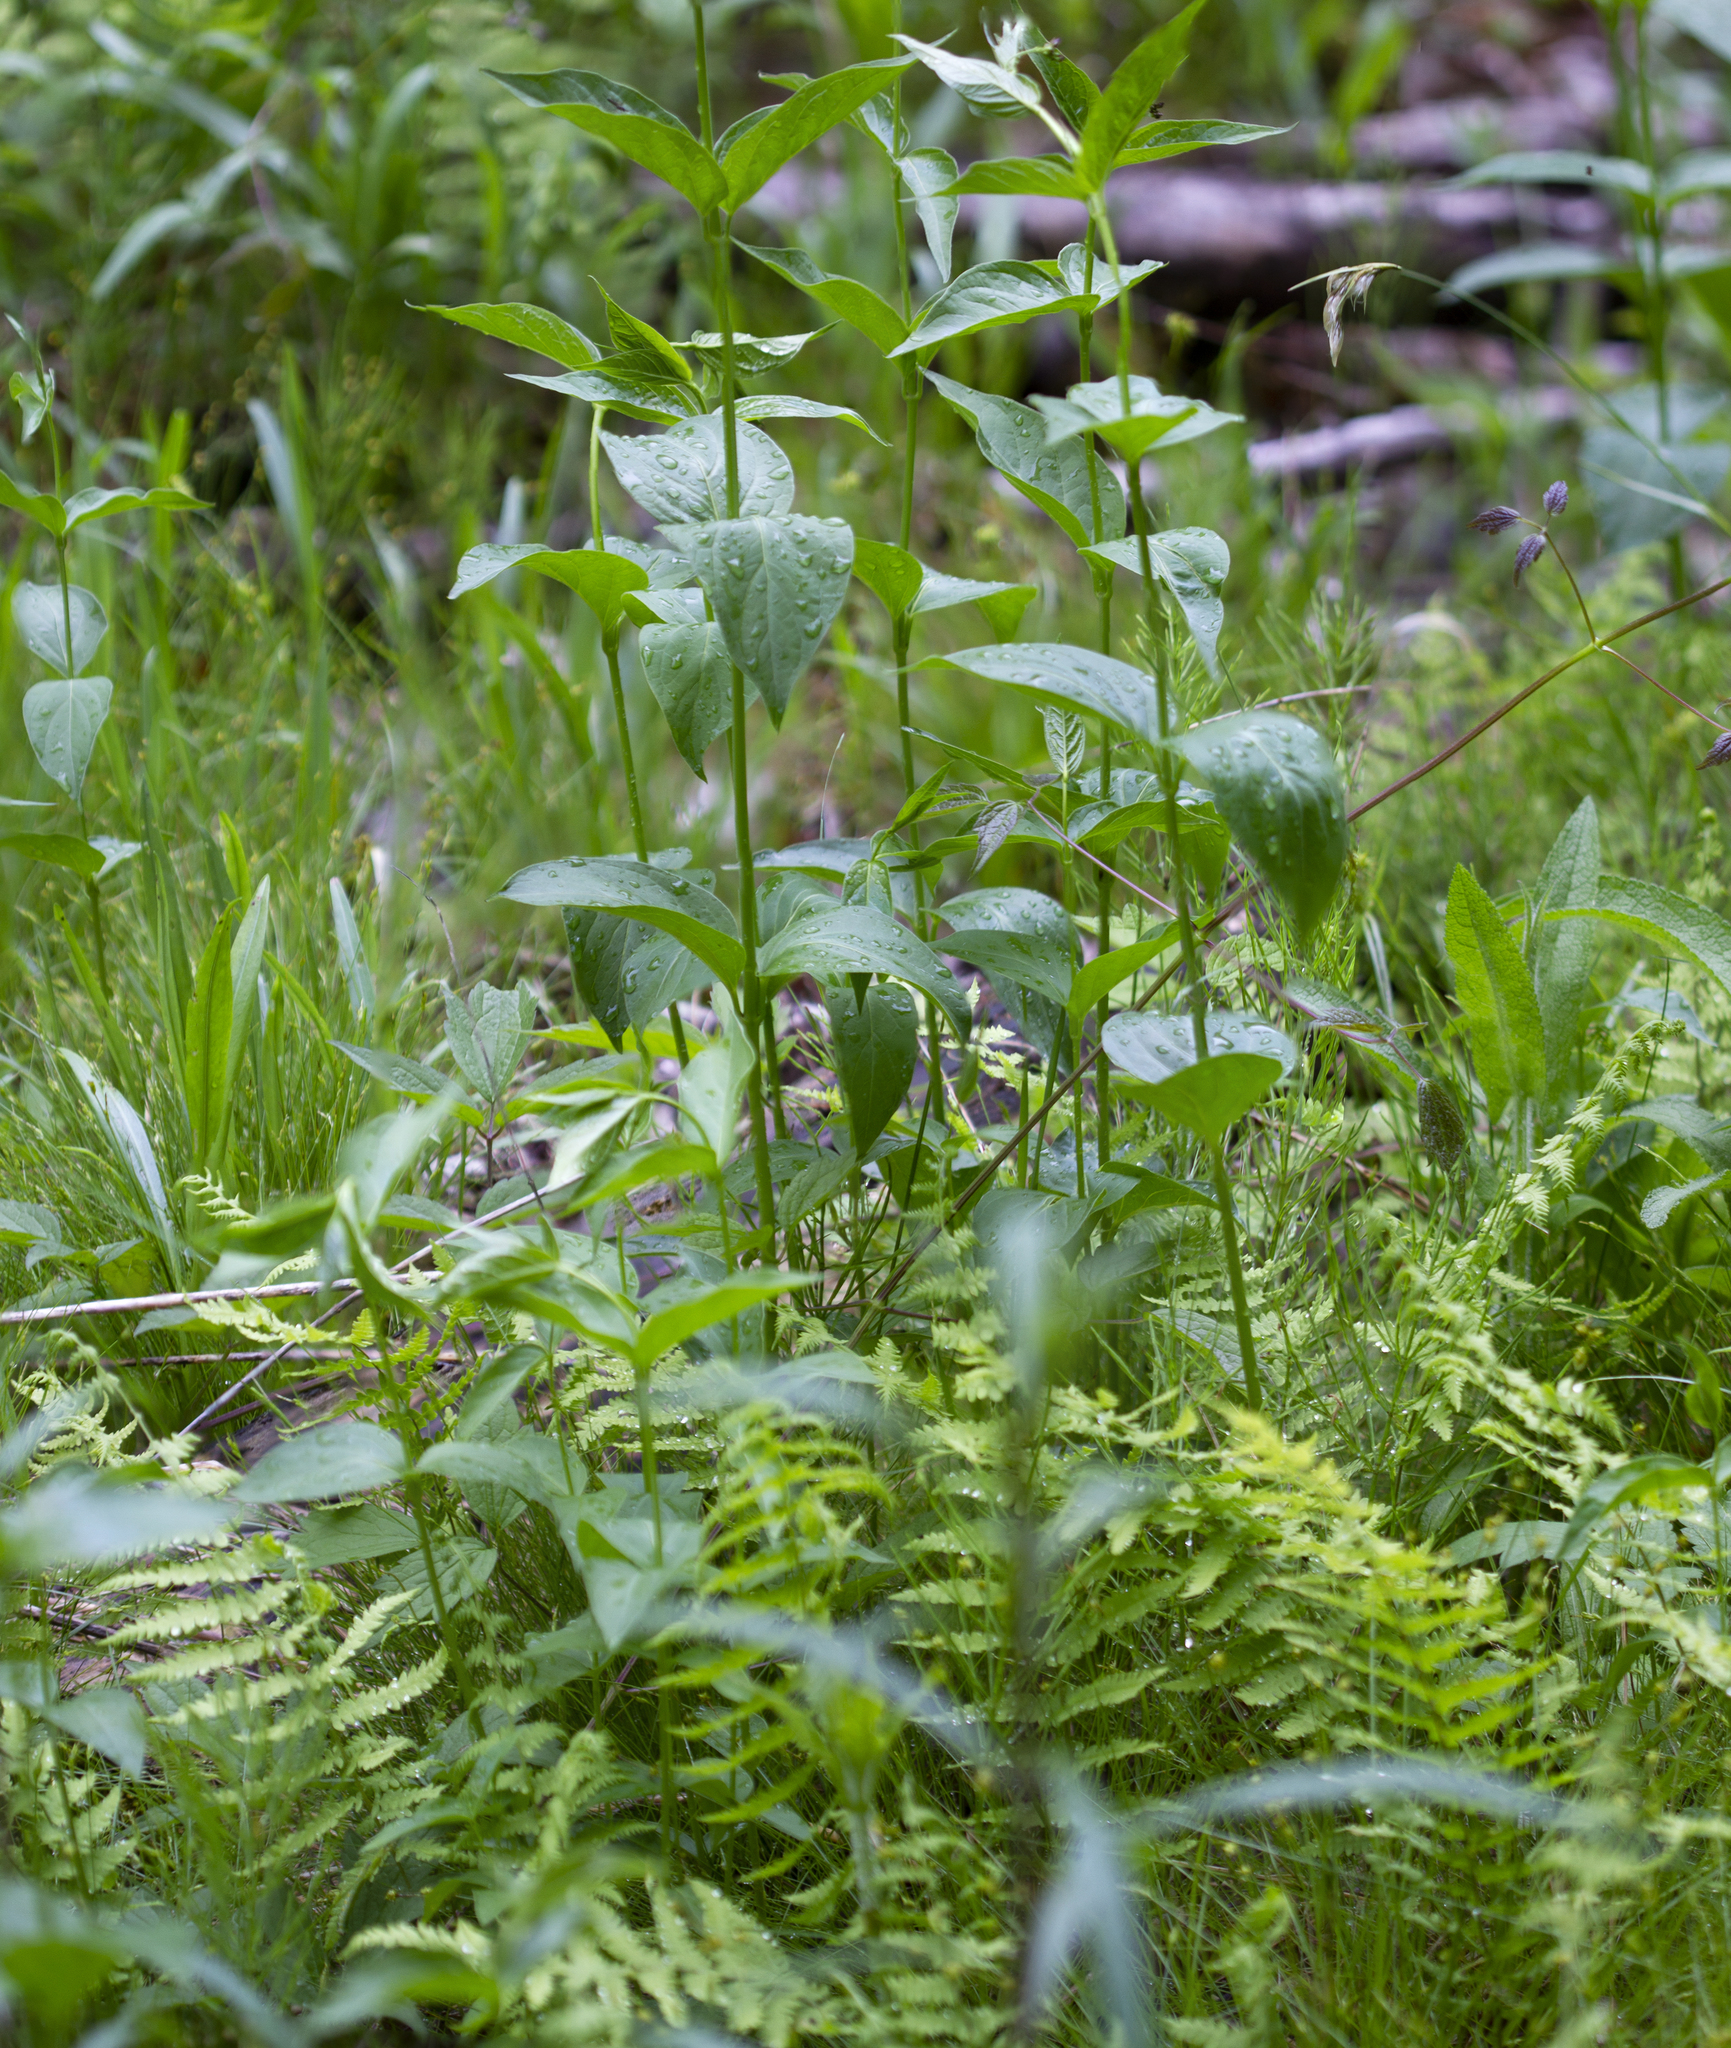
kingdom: Plantae
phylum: Tracheophyta
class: Magnoliopsida
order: Gentianales
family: Apocynaceae
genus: Vincetoxicum
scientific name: Vincetoxicum rossicum
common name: Dog-strangling vine
